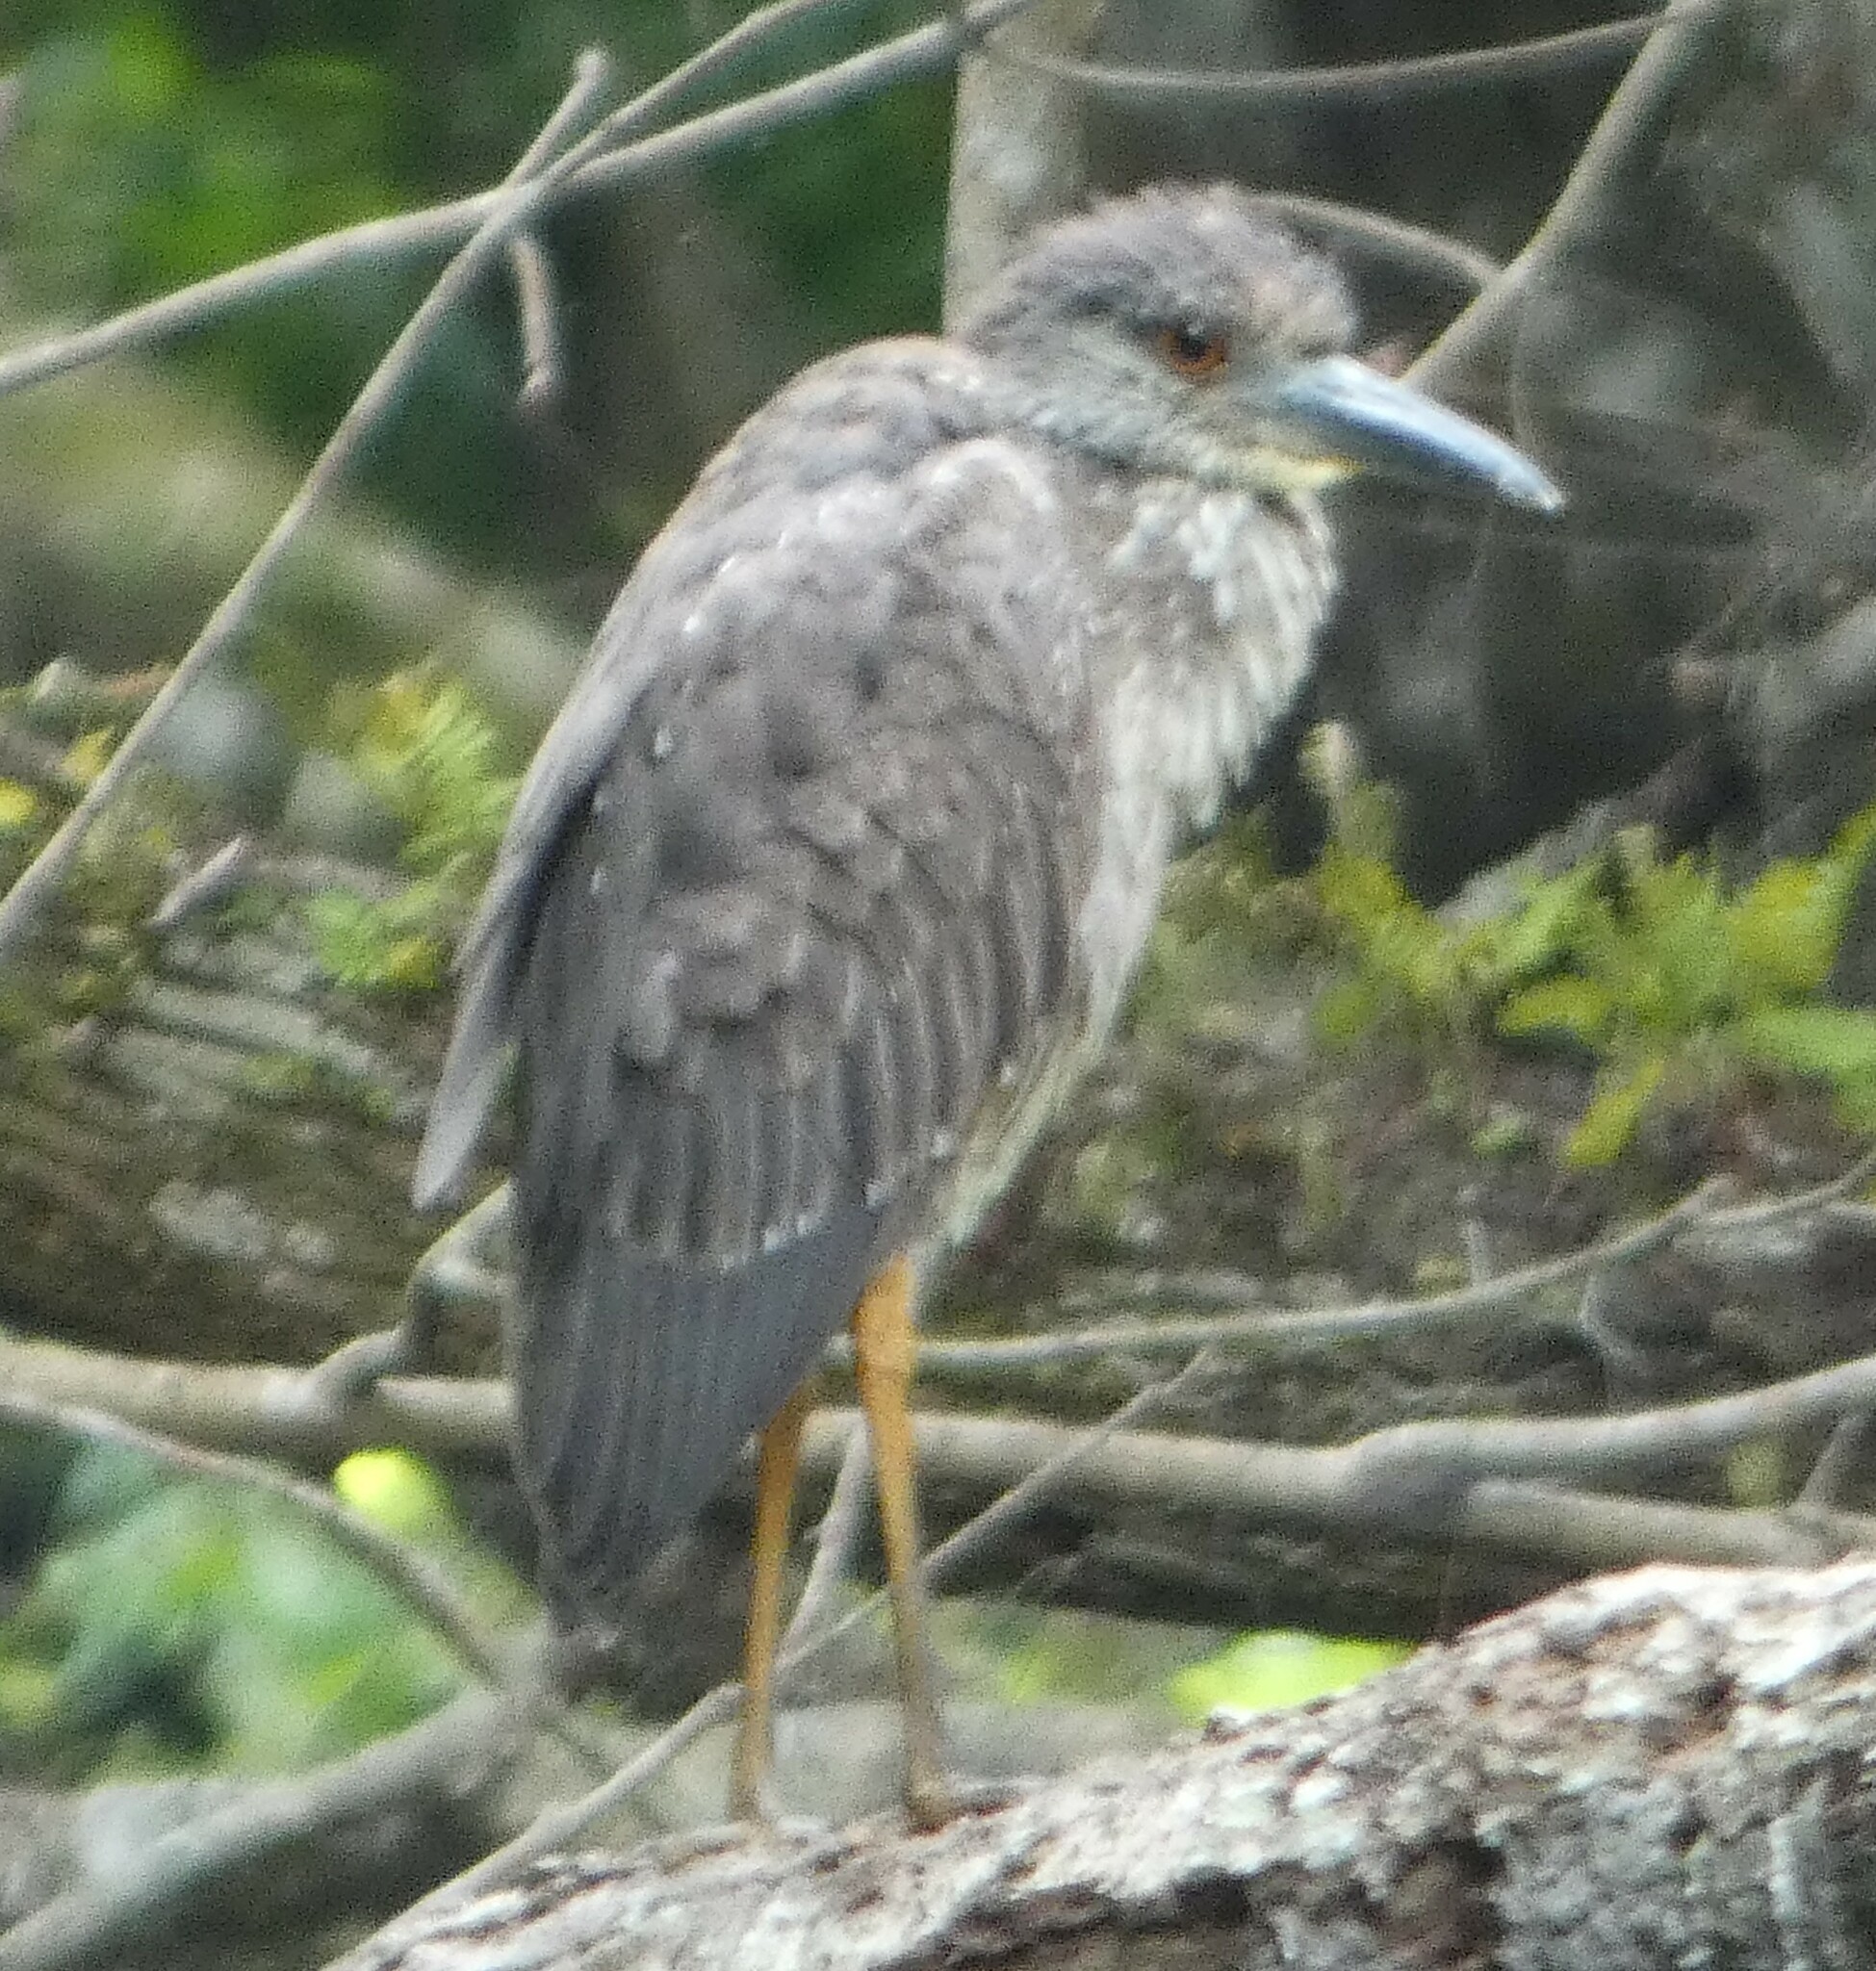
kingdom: Animalia
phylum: Chordata
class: Aves
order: Pelecaniformes
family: Ardeidae
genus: Nyctanassa
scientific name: Nyctanassa violacea
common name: Yellow-crowned night heron
